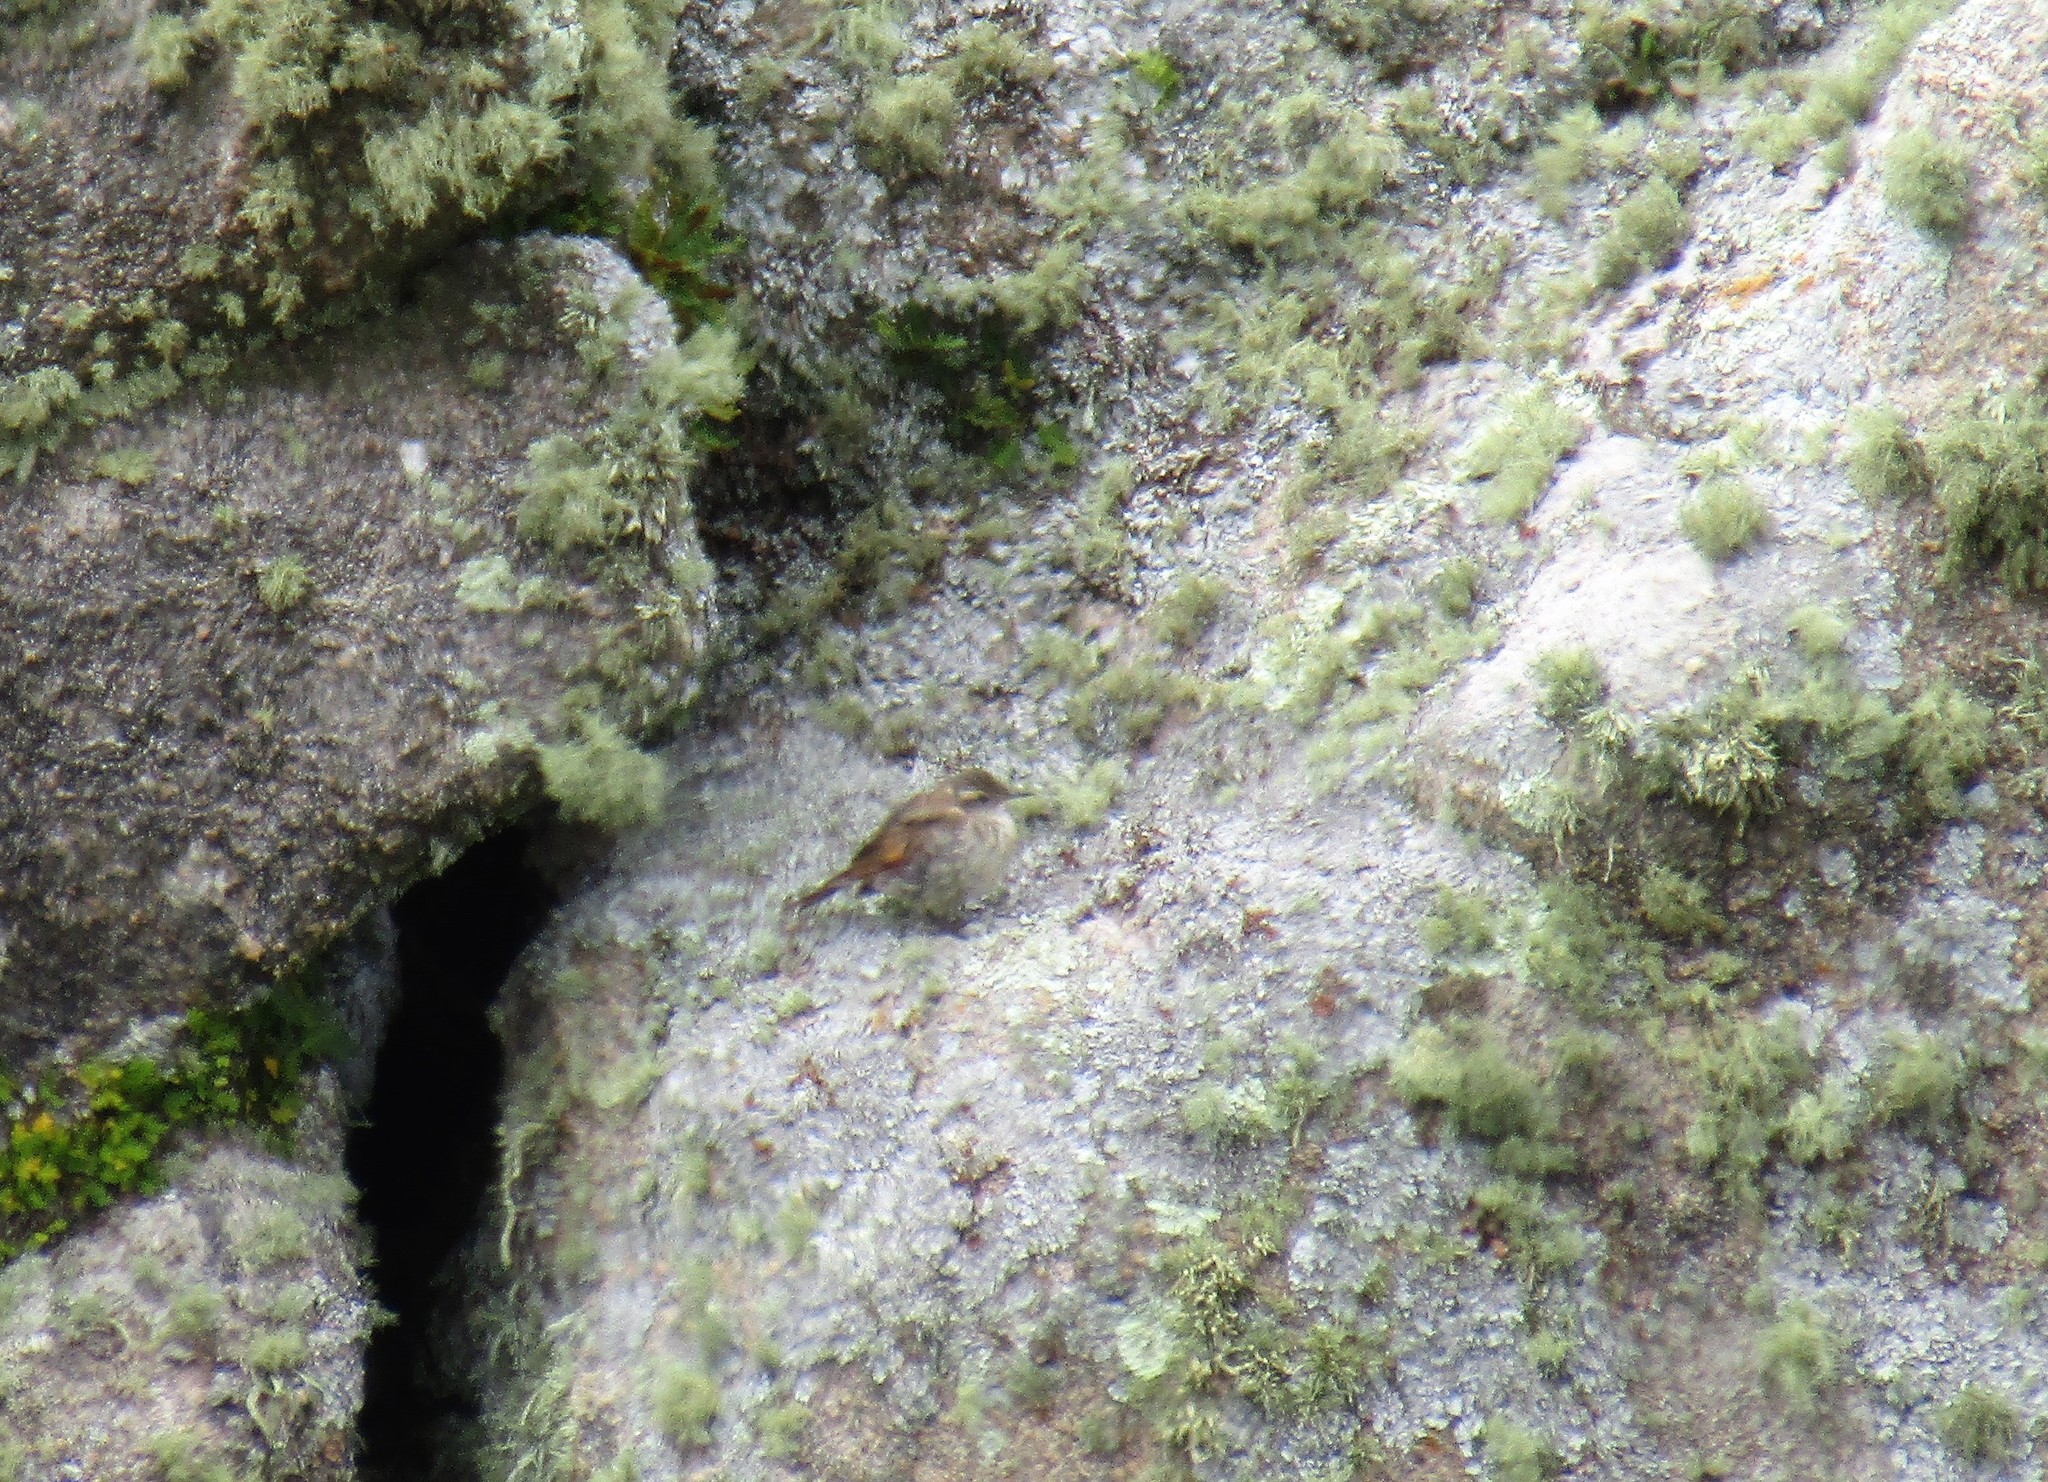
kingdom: Animalia
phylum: Chordata
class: Aves
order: Passeriformes
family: Furnariidae
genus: Cinclodes
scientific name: Cinclodes comechingonus
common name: Cordoba cinclodes
